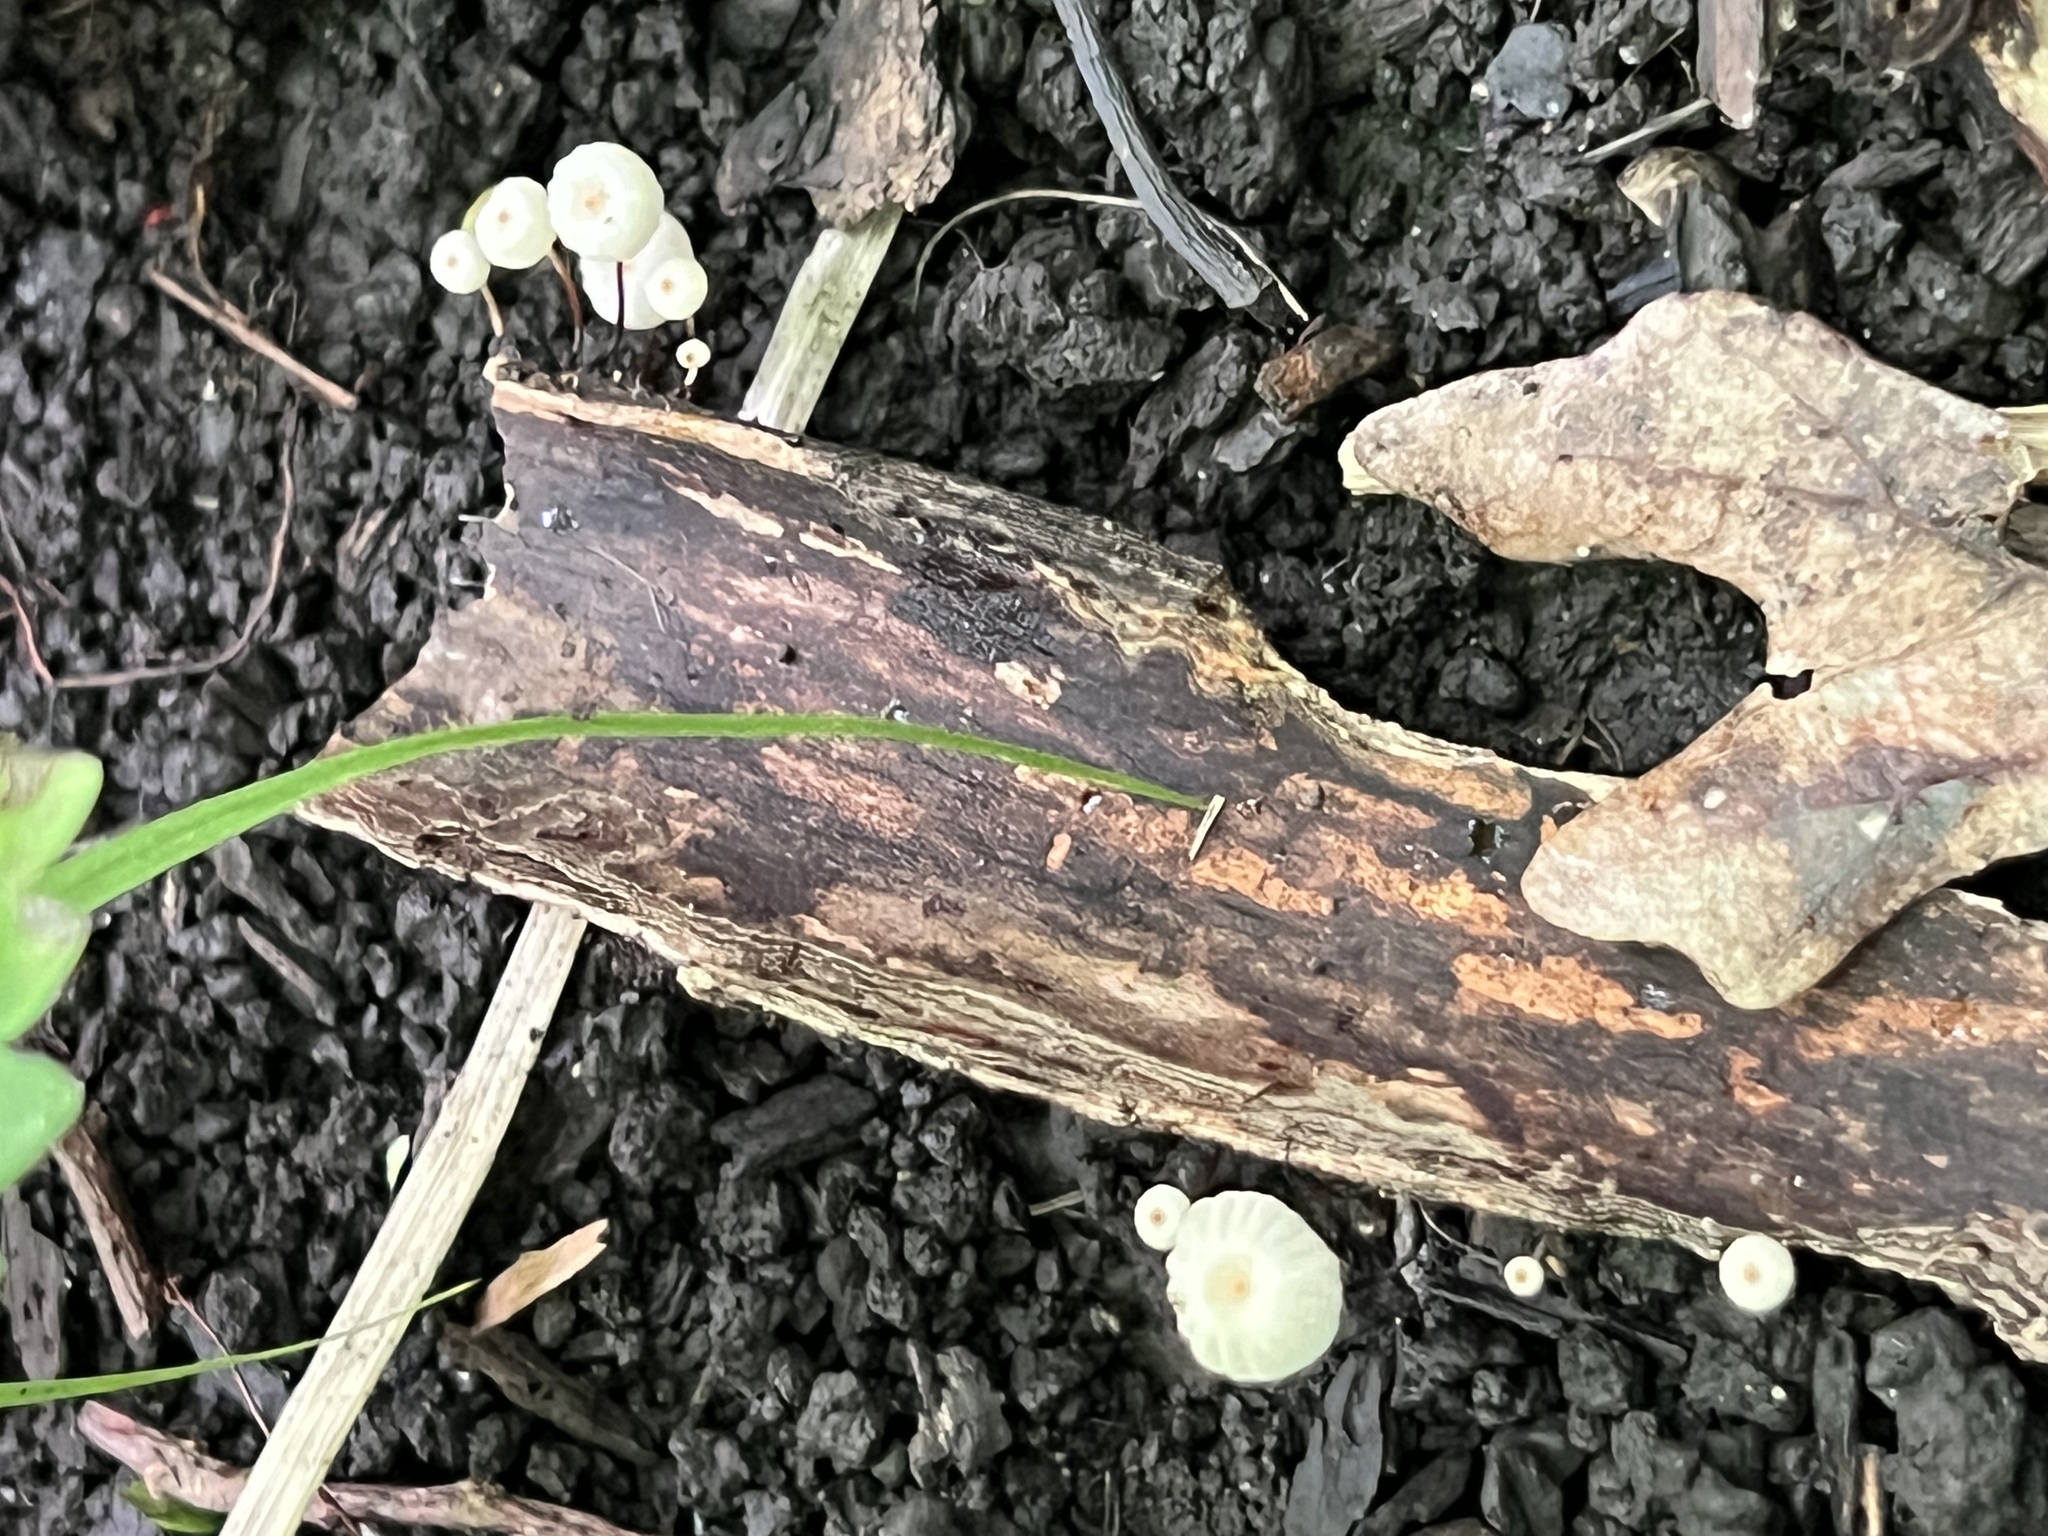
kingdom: Fungi
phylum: Basidiomycota
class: Agaricomycetes
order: Agaricales
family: Marasmiaceae
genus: Marasmius
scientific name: Marasmius rotula
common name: Collared parachute
